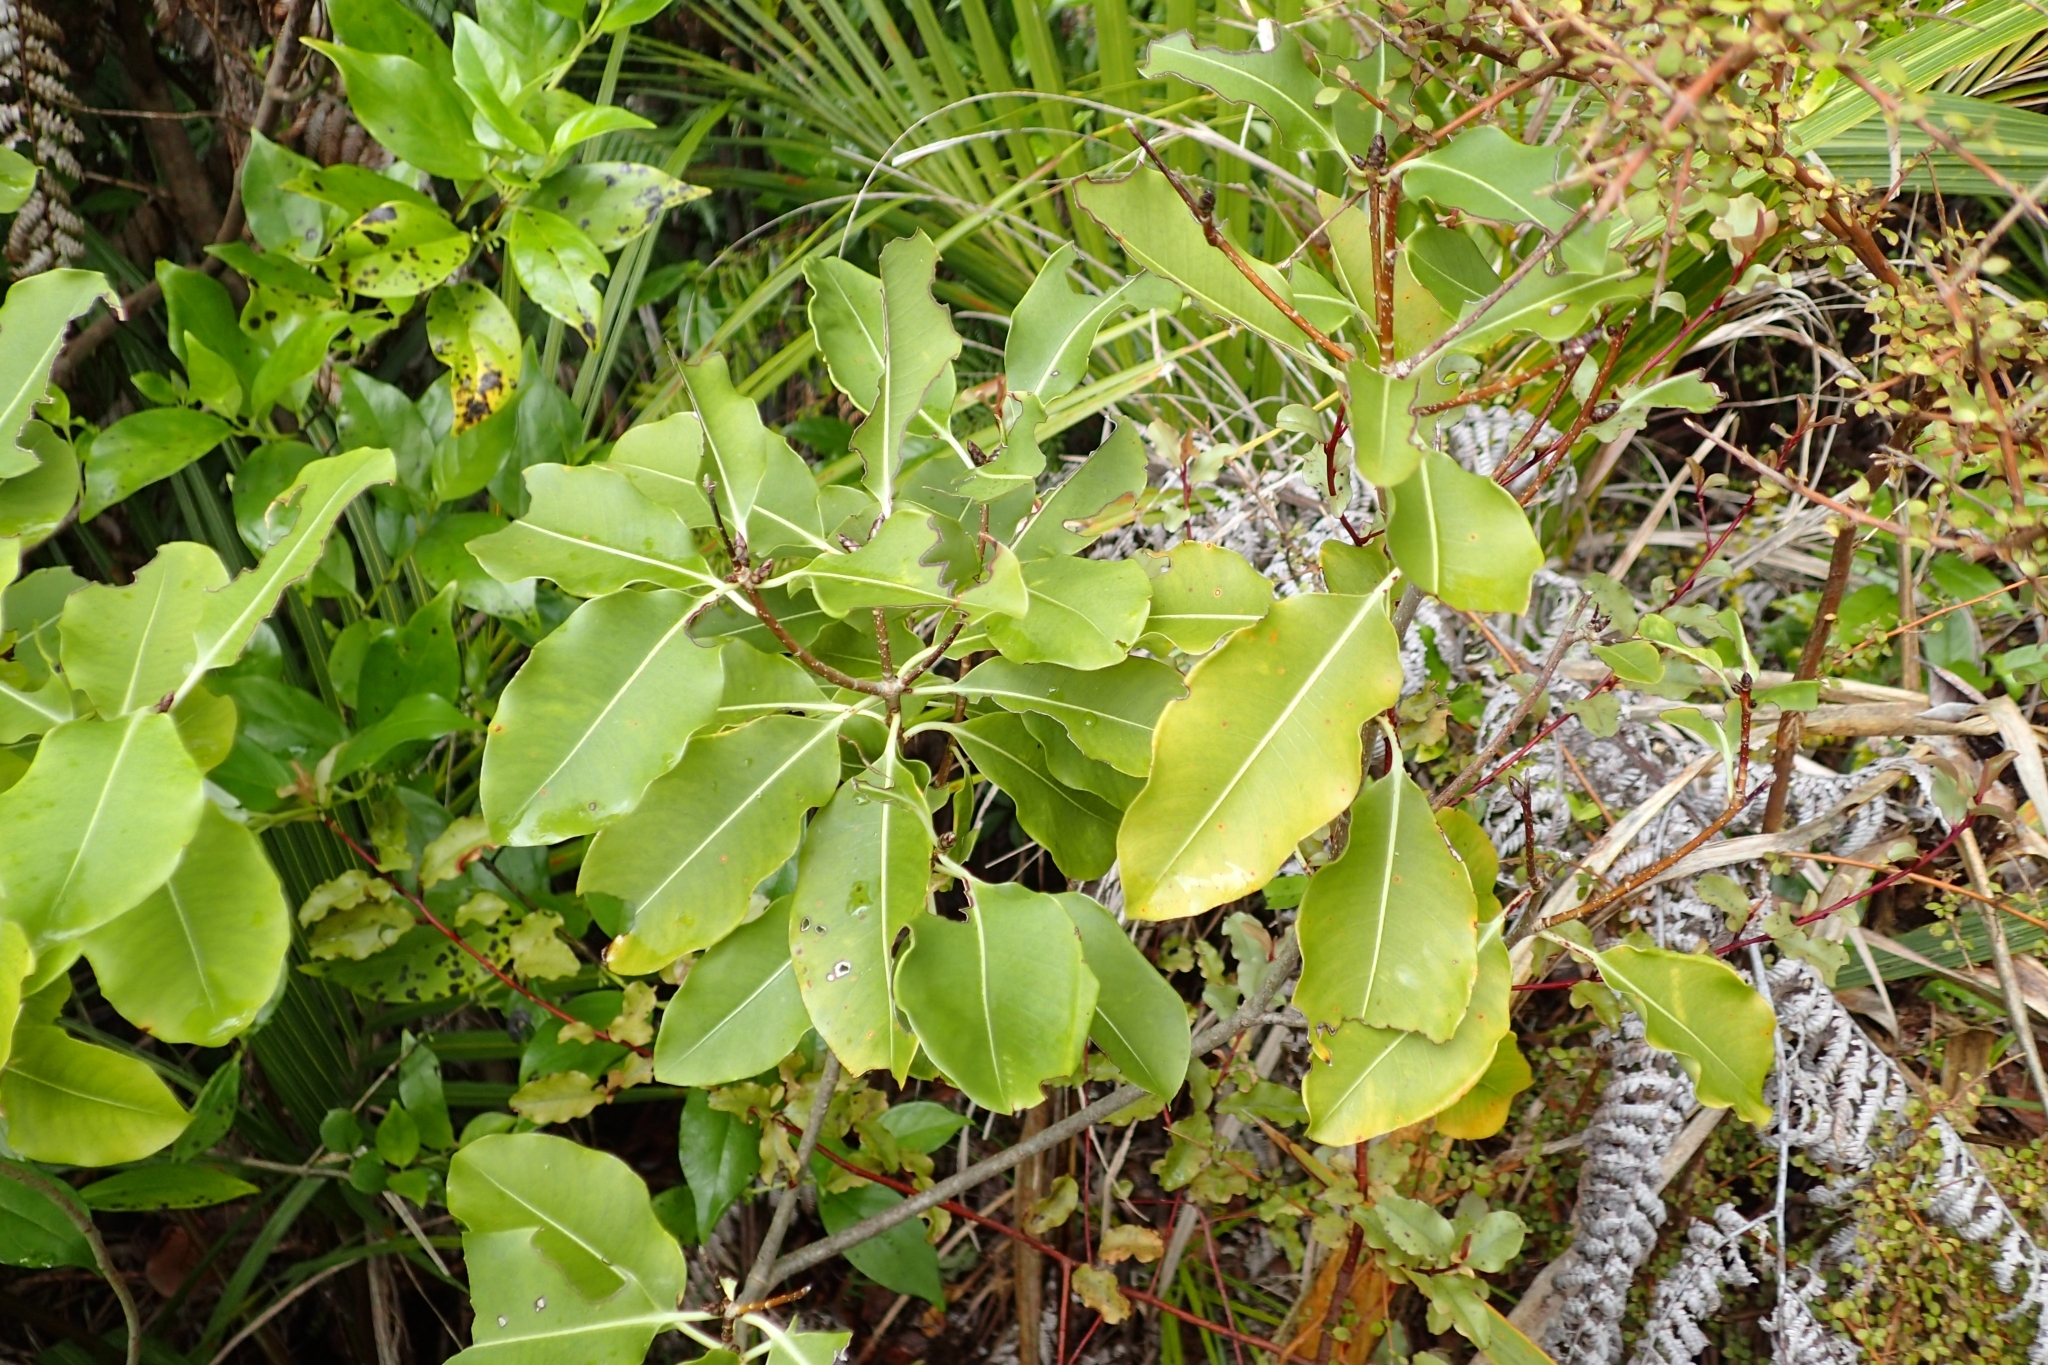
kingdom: Plantae
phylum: Tracheophyta
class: Magnoliopsida
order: Apiales
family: Pittosporaceae
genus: Pittosporum
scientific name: Pittosporum eugenioides
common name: Lemonwood
